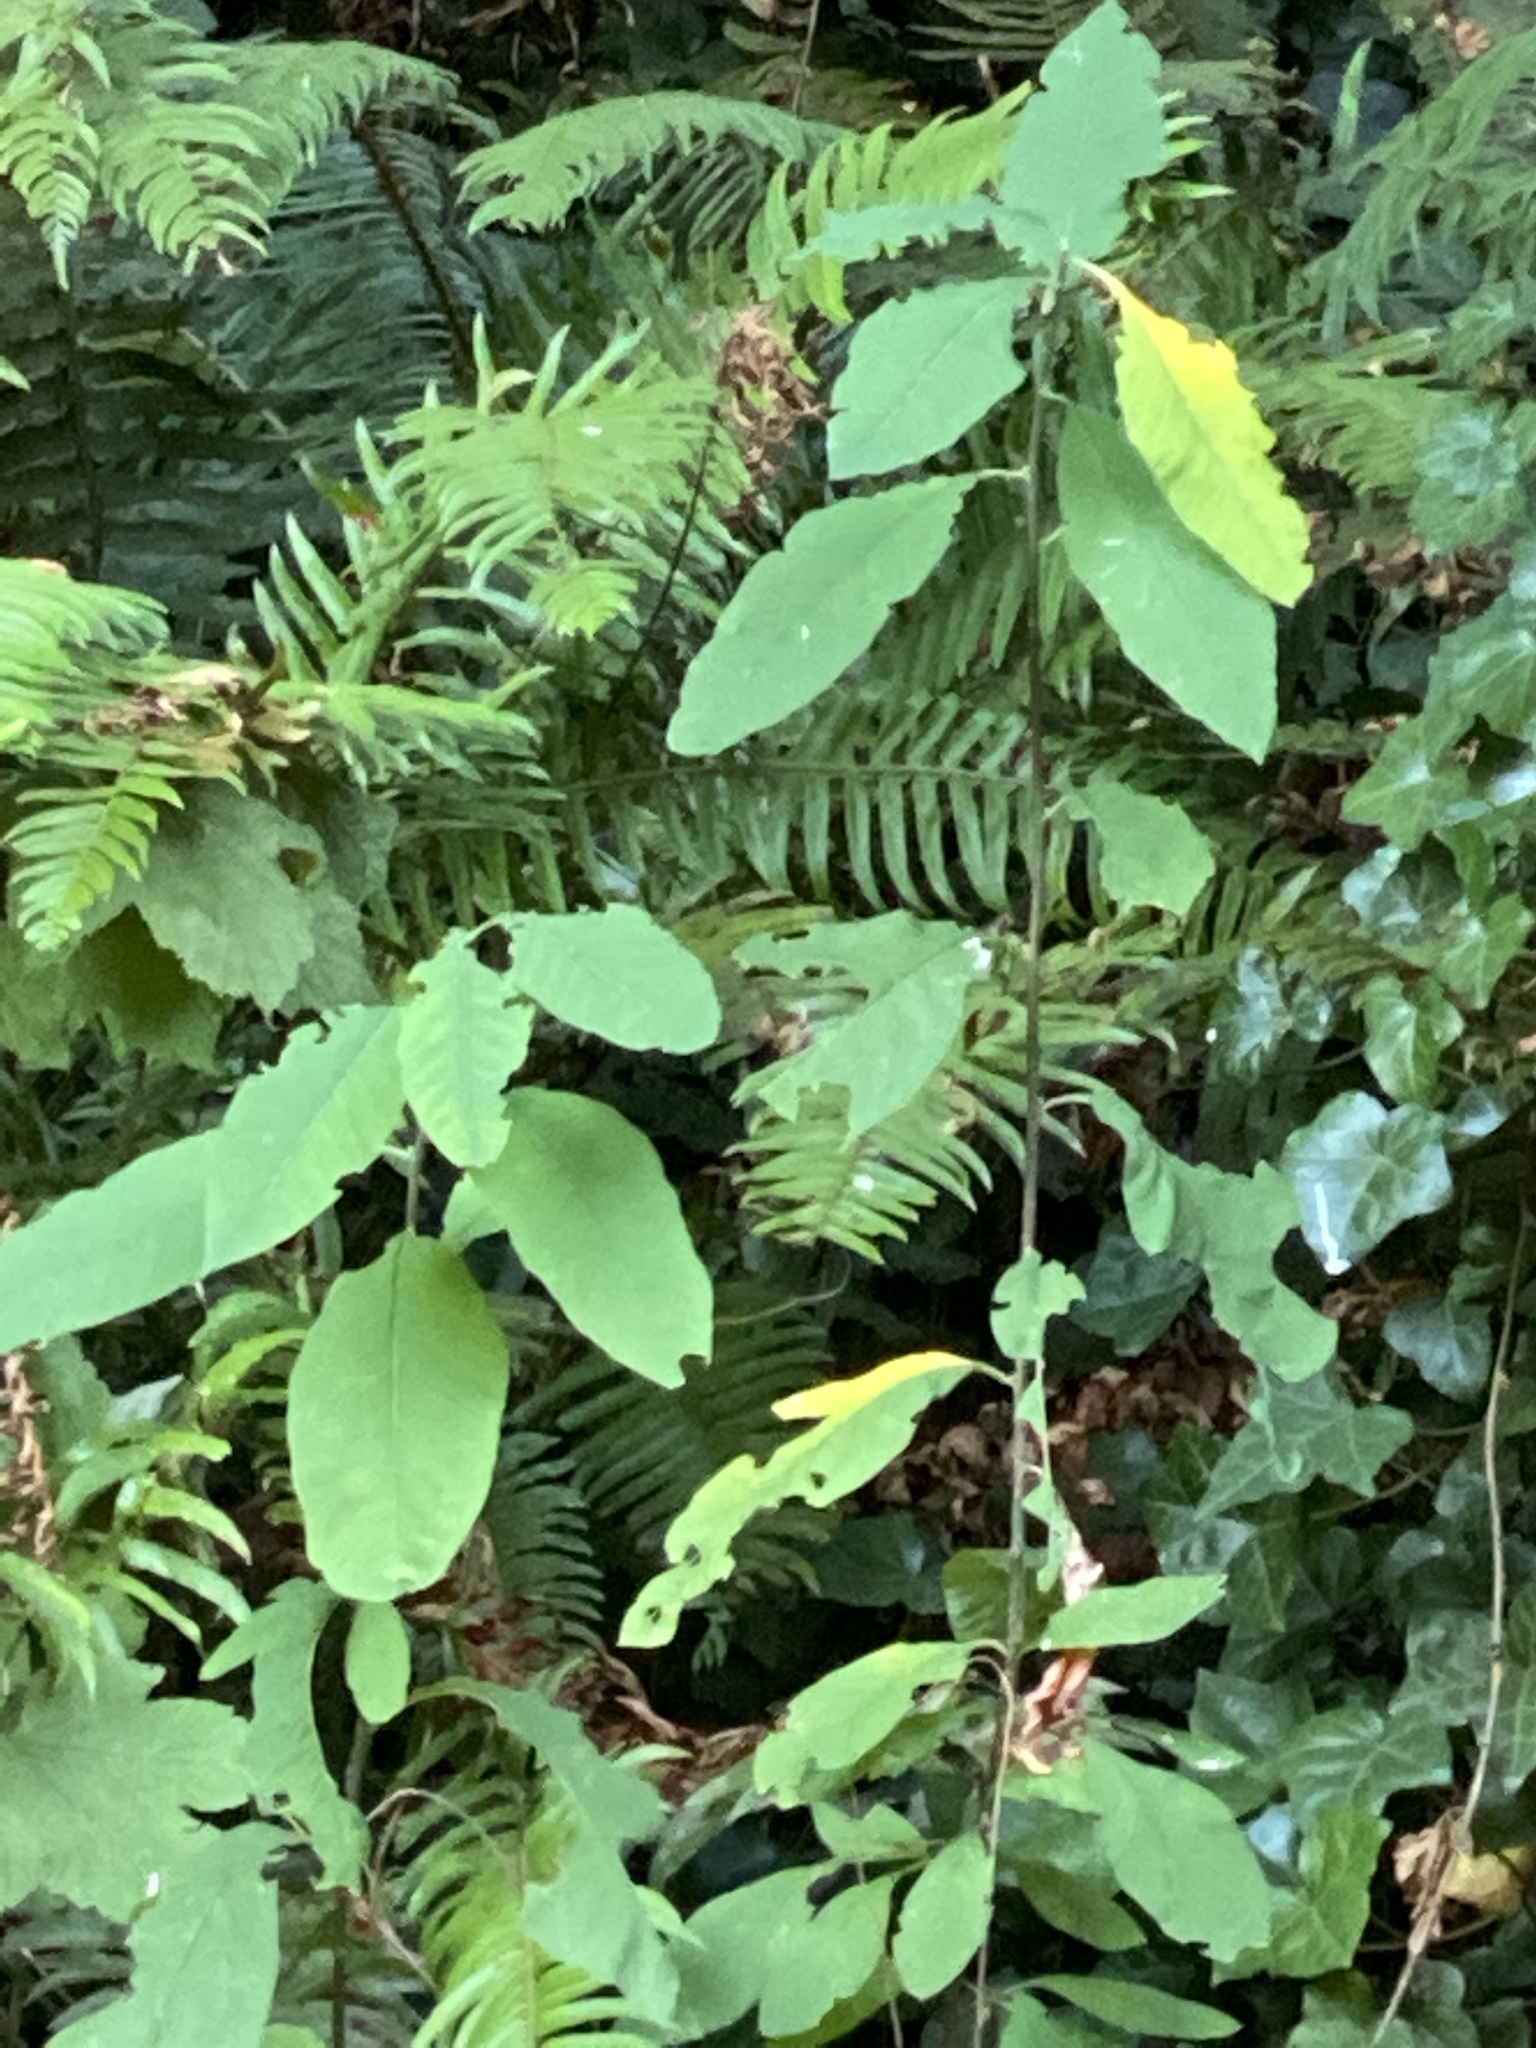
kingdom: Plantae
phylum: Tracheophyta
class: Magnoliopsida
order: Rosales
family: Rosaceae
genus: Oemleria
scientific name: Oemleria cerasiformis
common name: Osoberry
